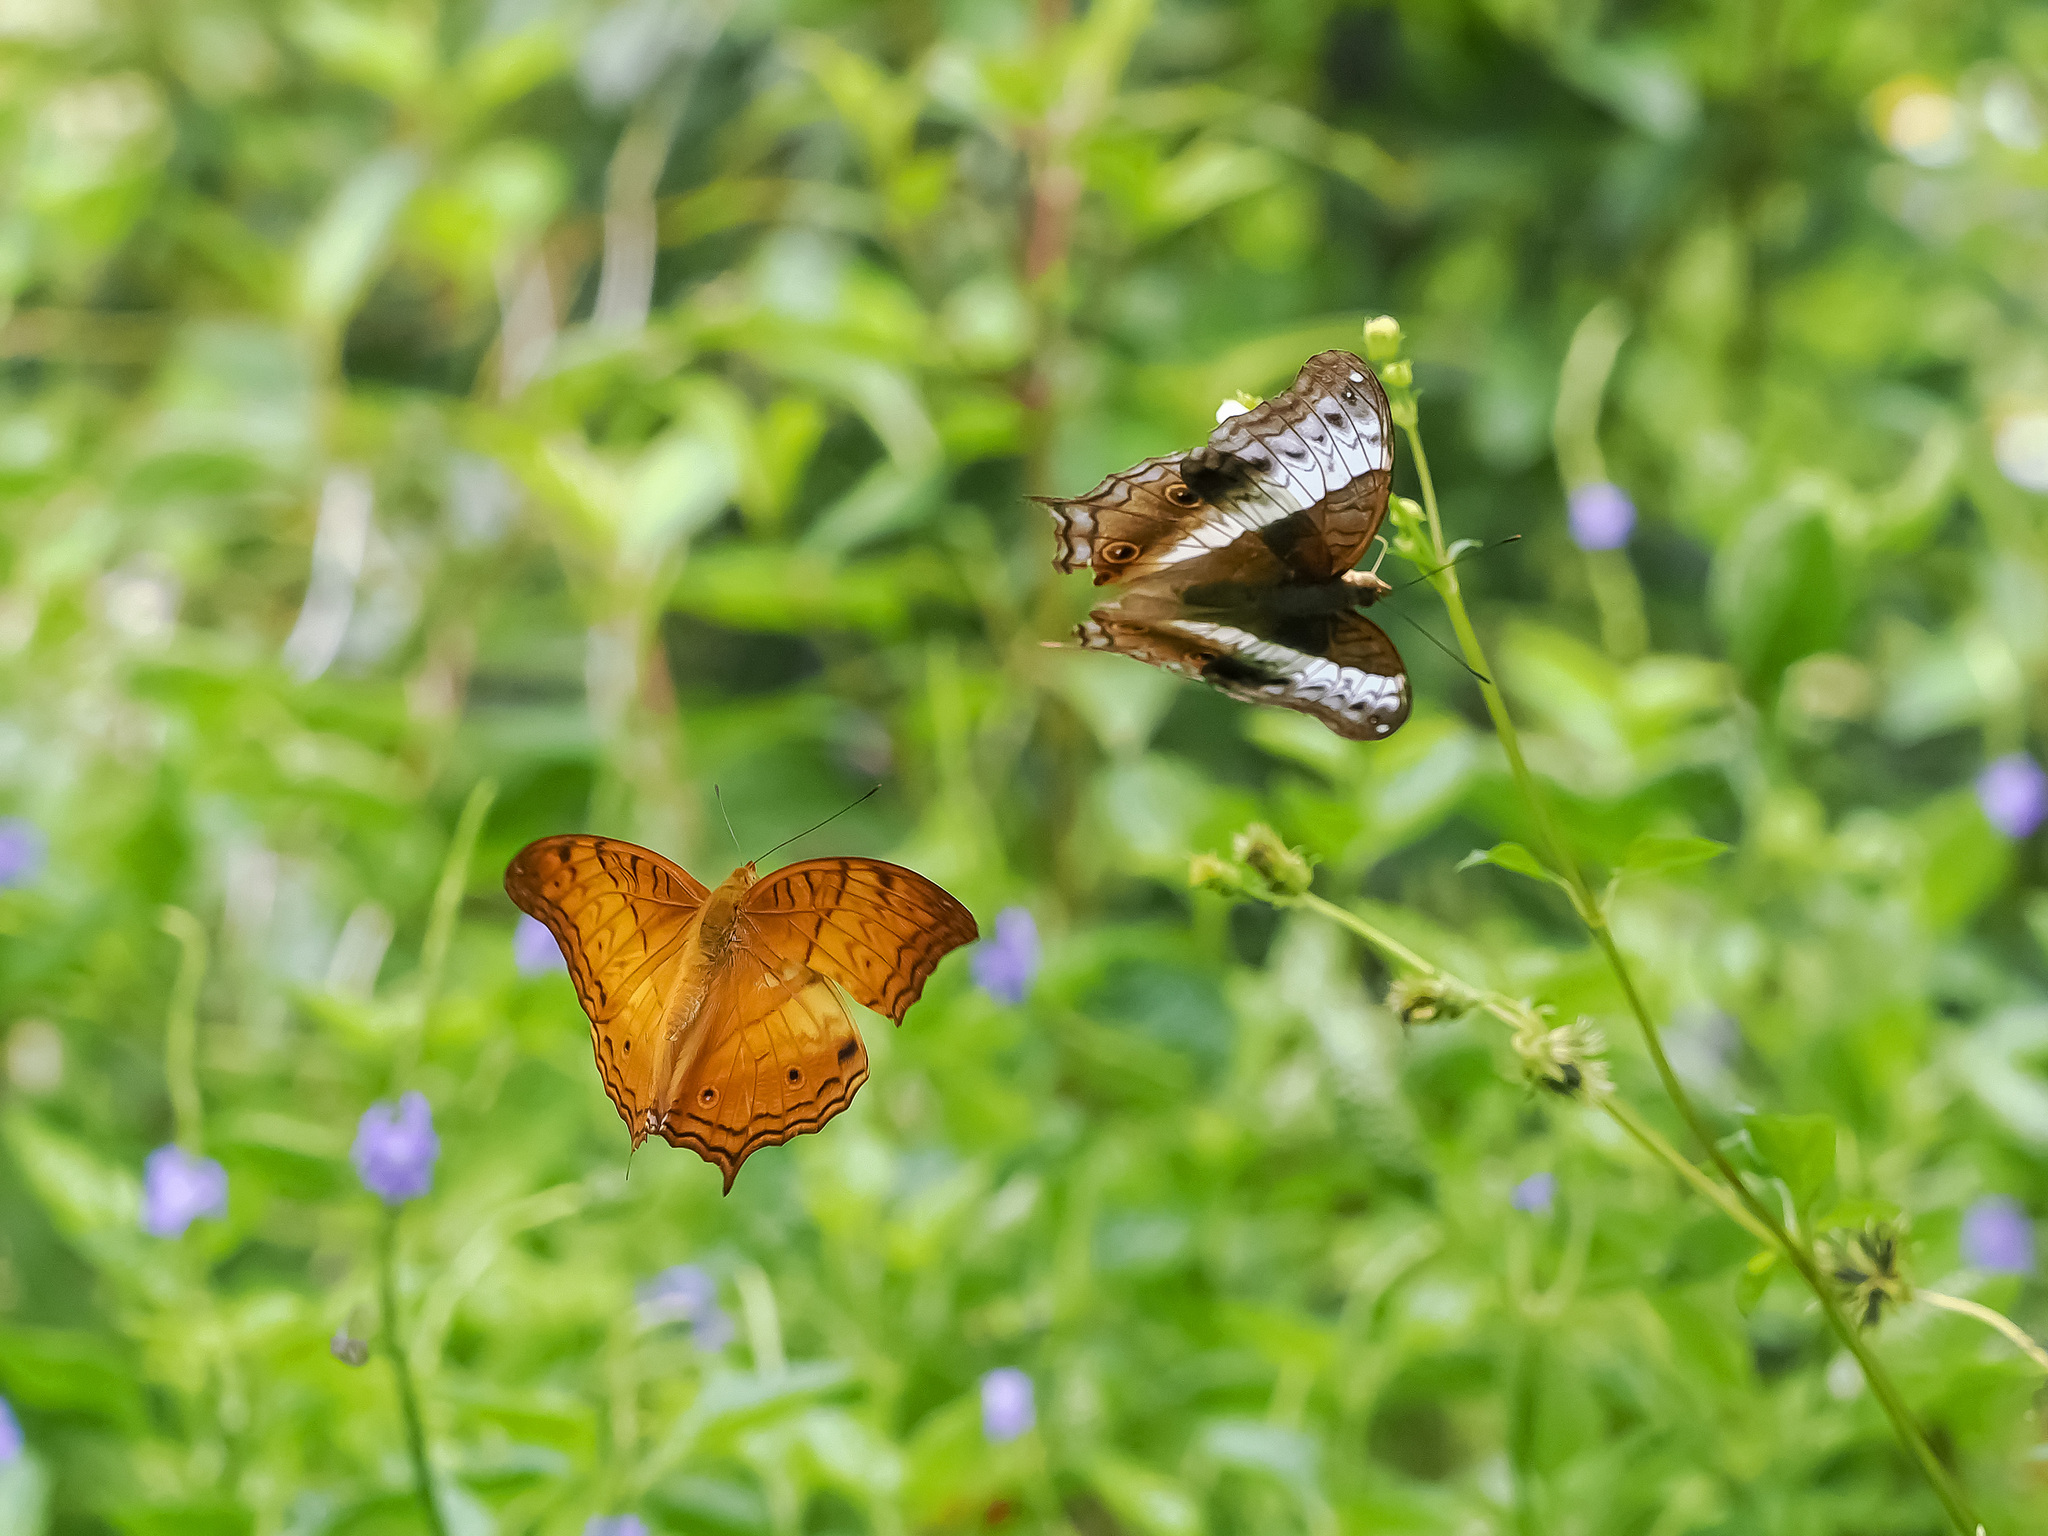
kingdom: Animalia
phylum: Arthropoda
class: Insecta
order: Lepidoptera
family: Nymphalidae
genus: Vindula
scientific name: Vindula deione
